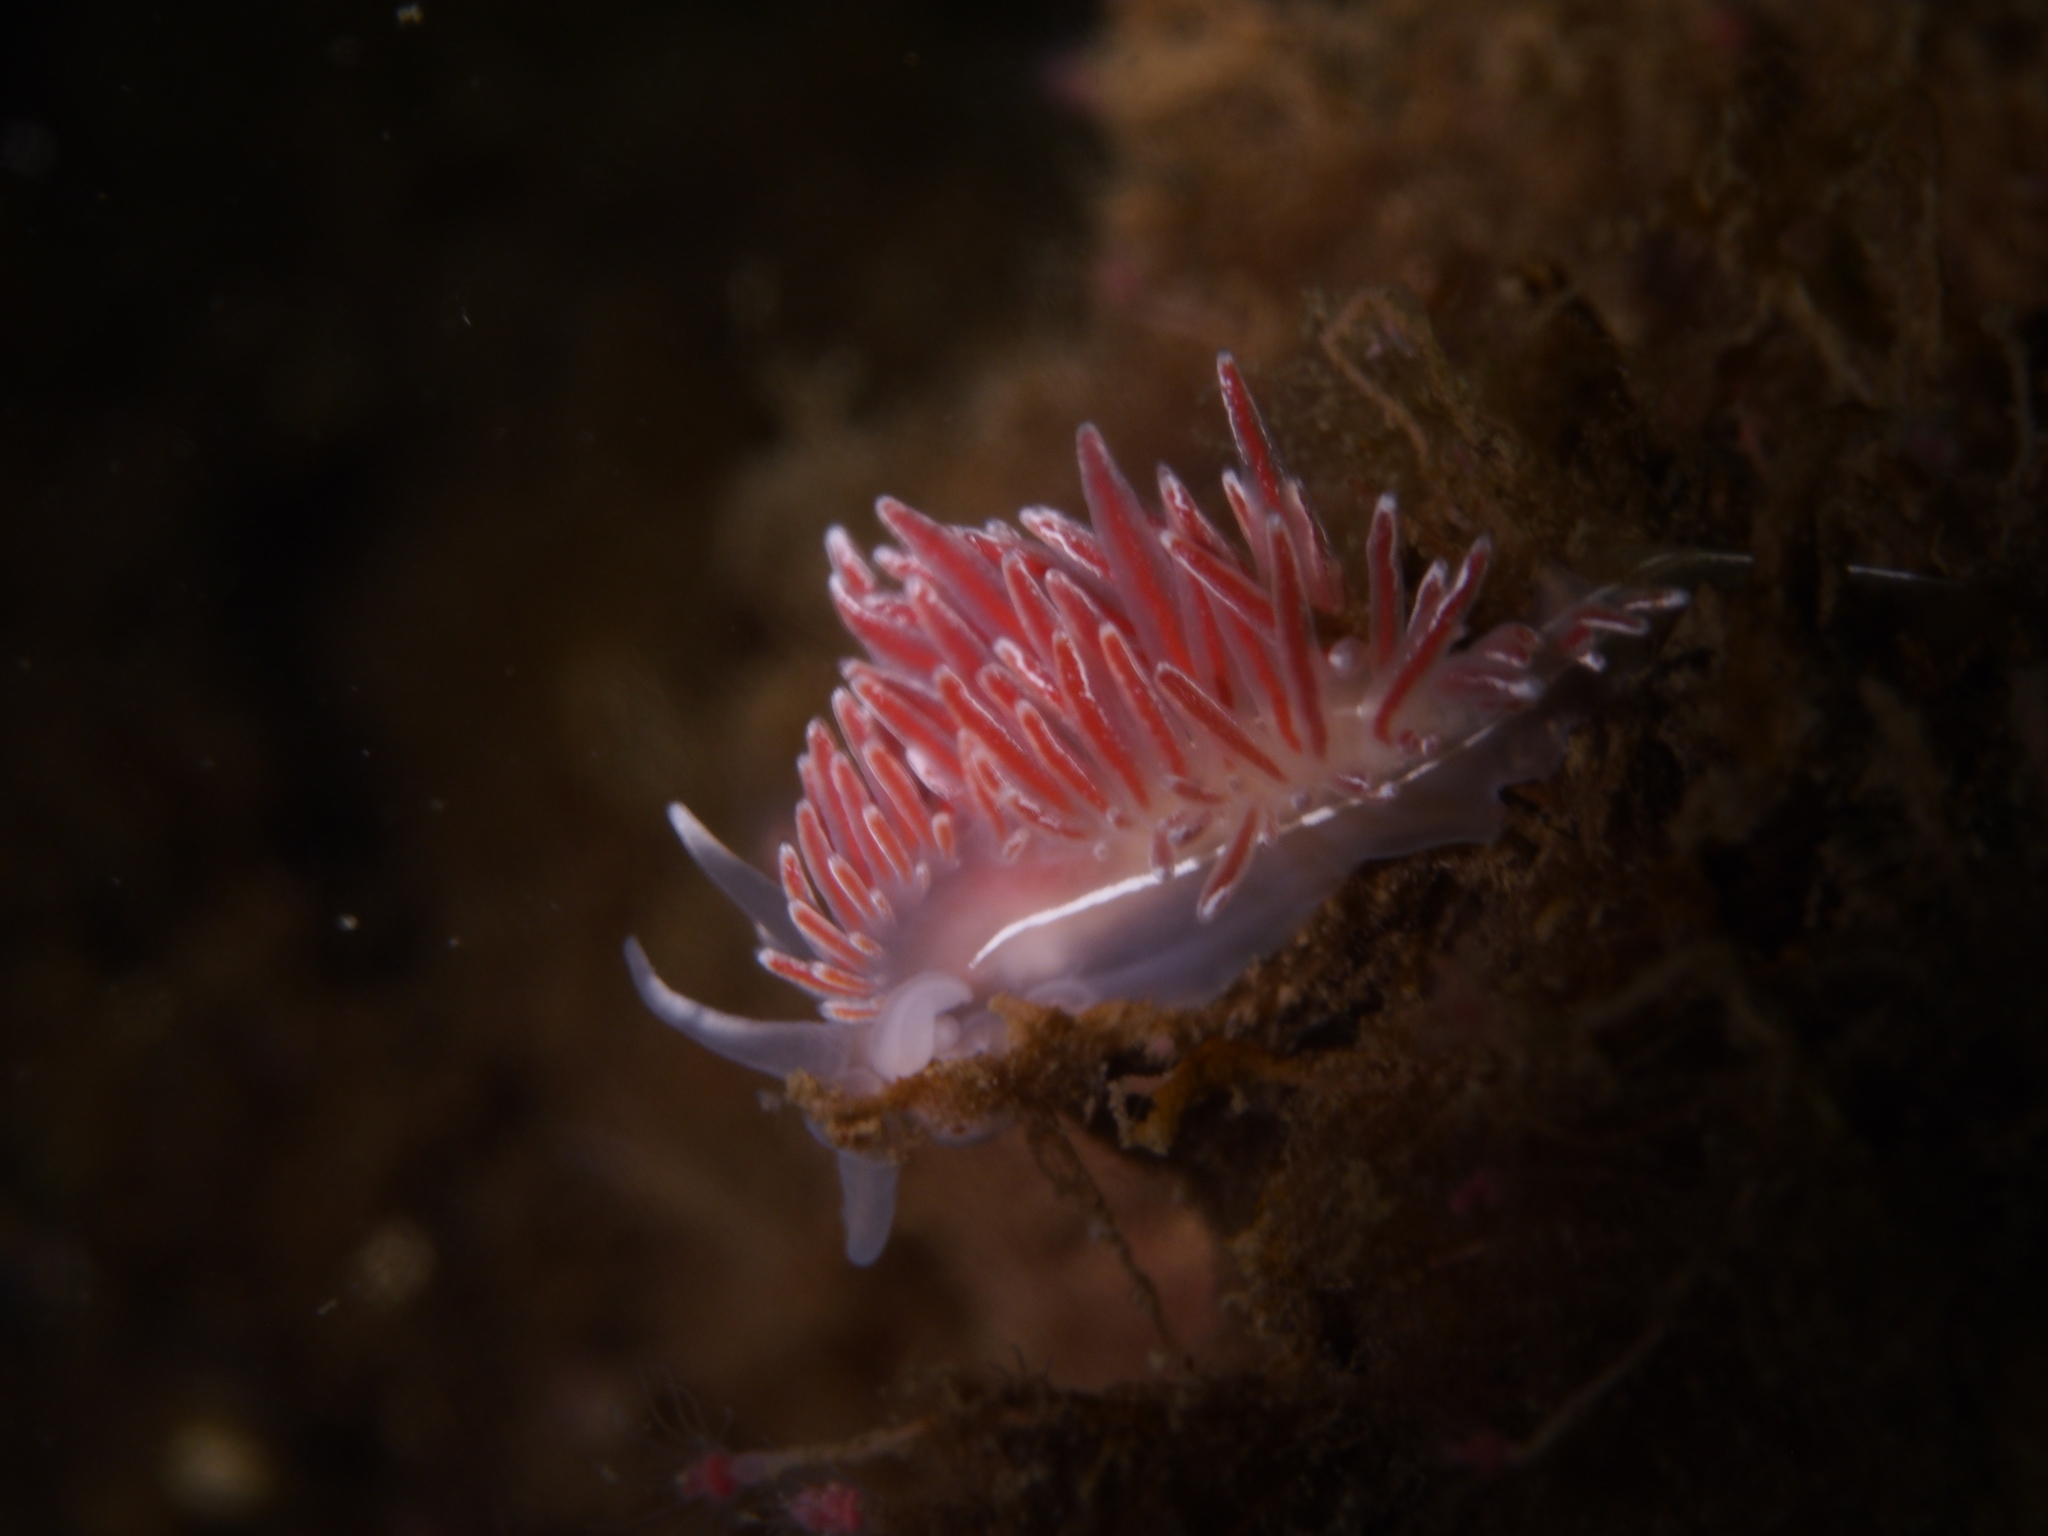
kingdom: Animalia
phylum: Mollusca
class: Gastropoda
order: Nudibranchia
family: Coryphellidae
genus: Coryphella
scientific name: Coryphella lineata
